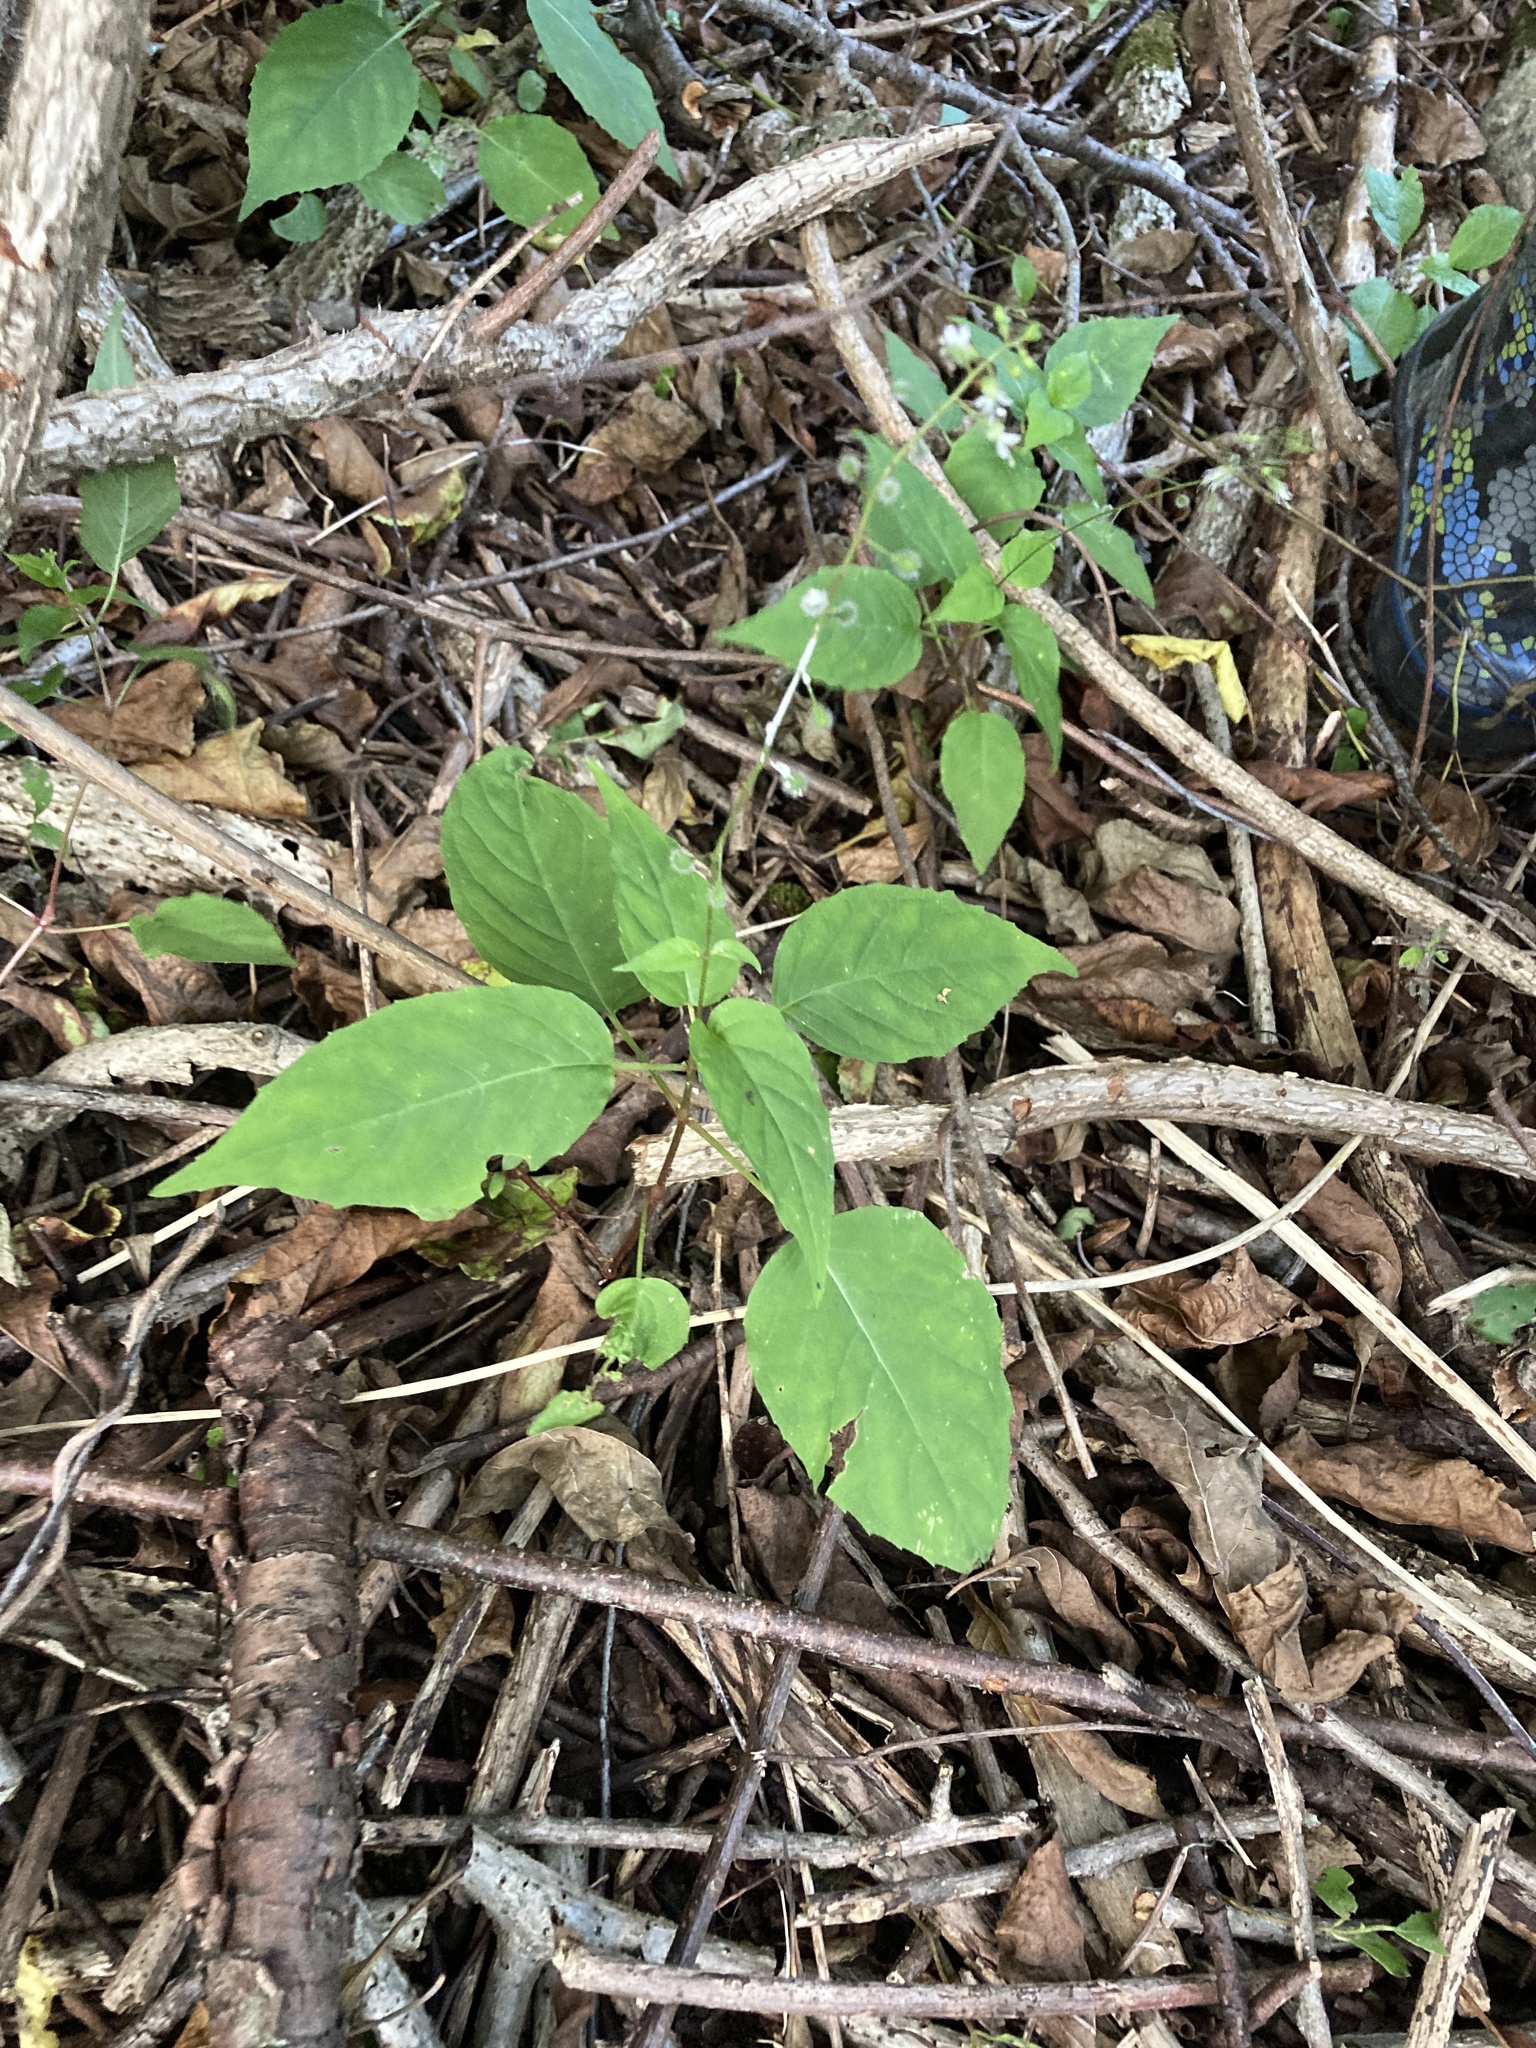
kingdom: Plantae
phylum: Tracheophyta
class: Magnoliopsida
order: Myrtales
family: Onagraceae
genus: Circaea
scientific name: Circaea canadensis
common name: Broad-leaved enchanter's nightshade
